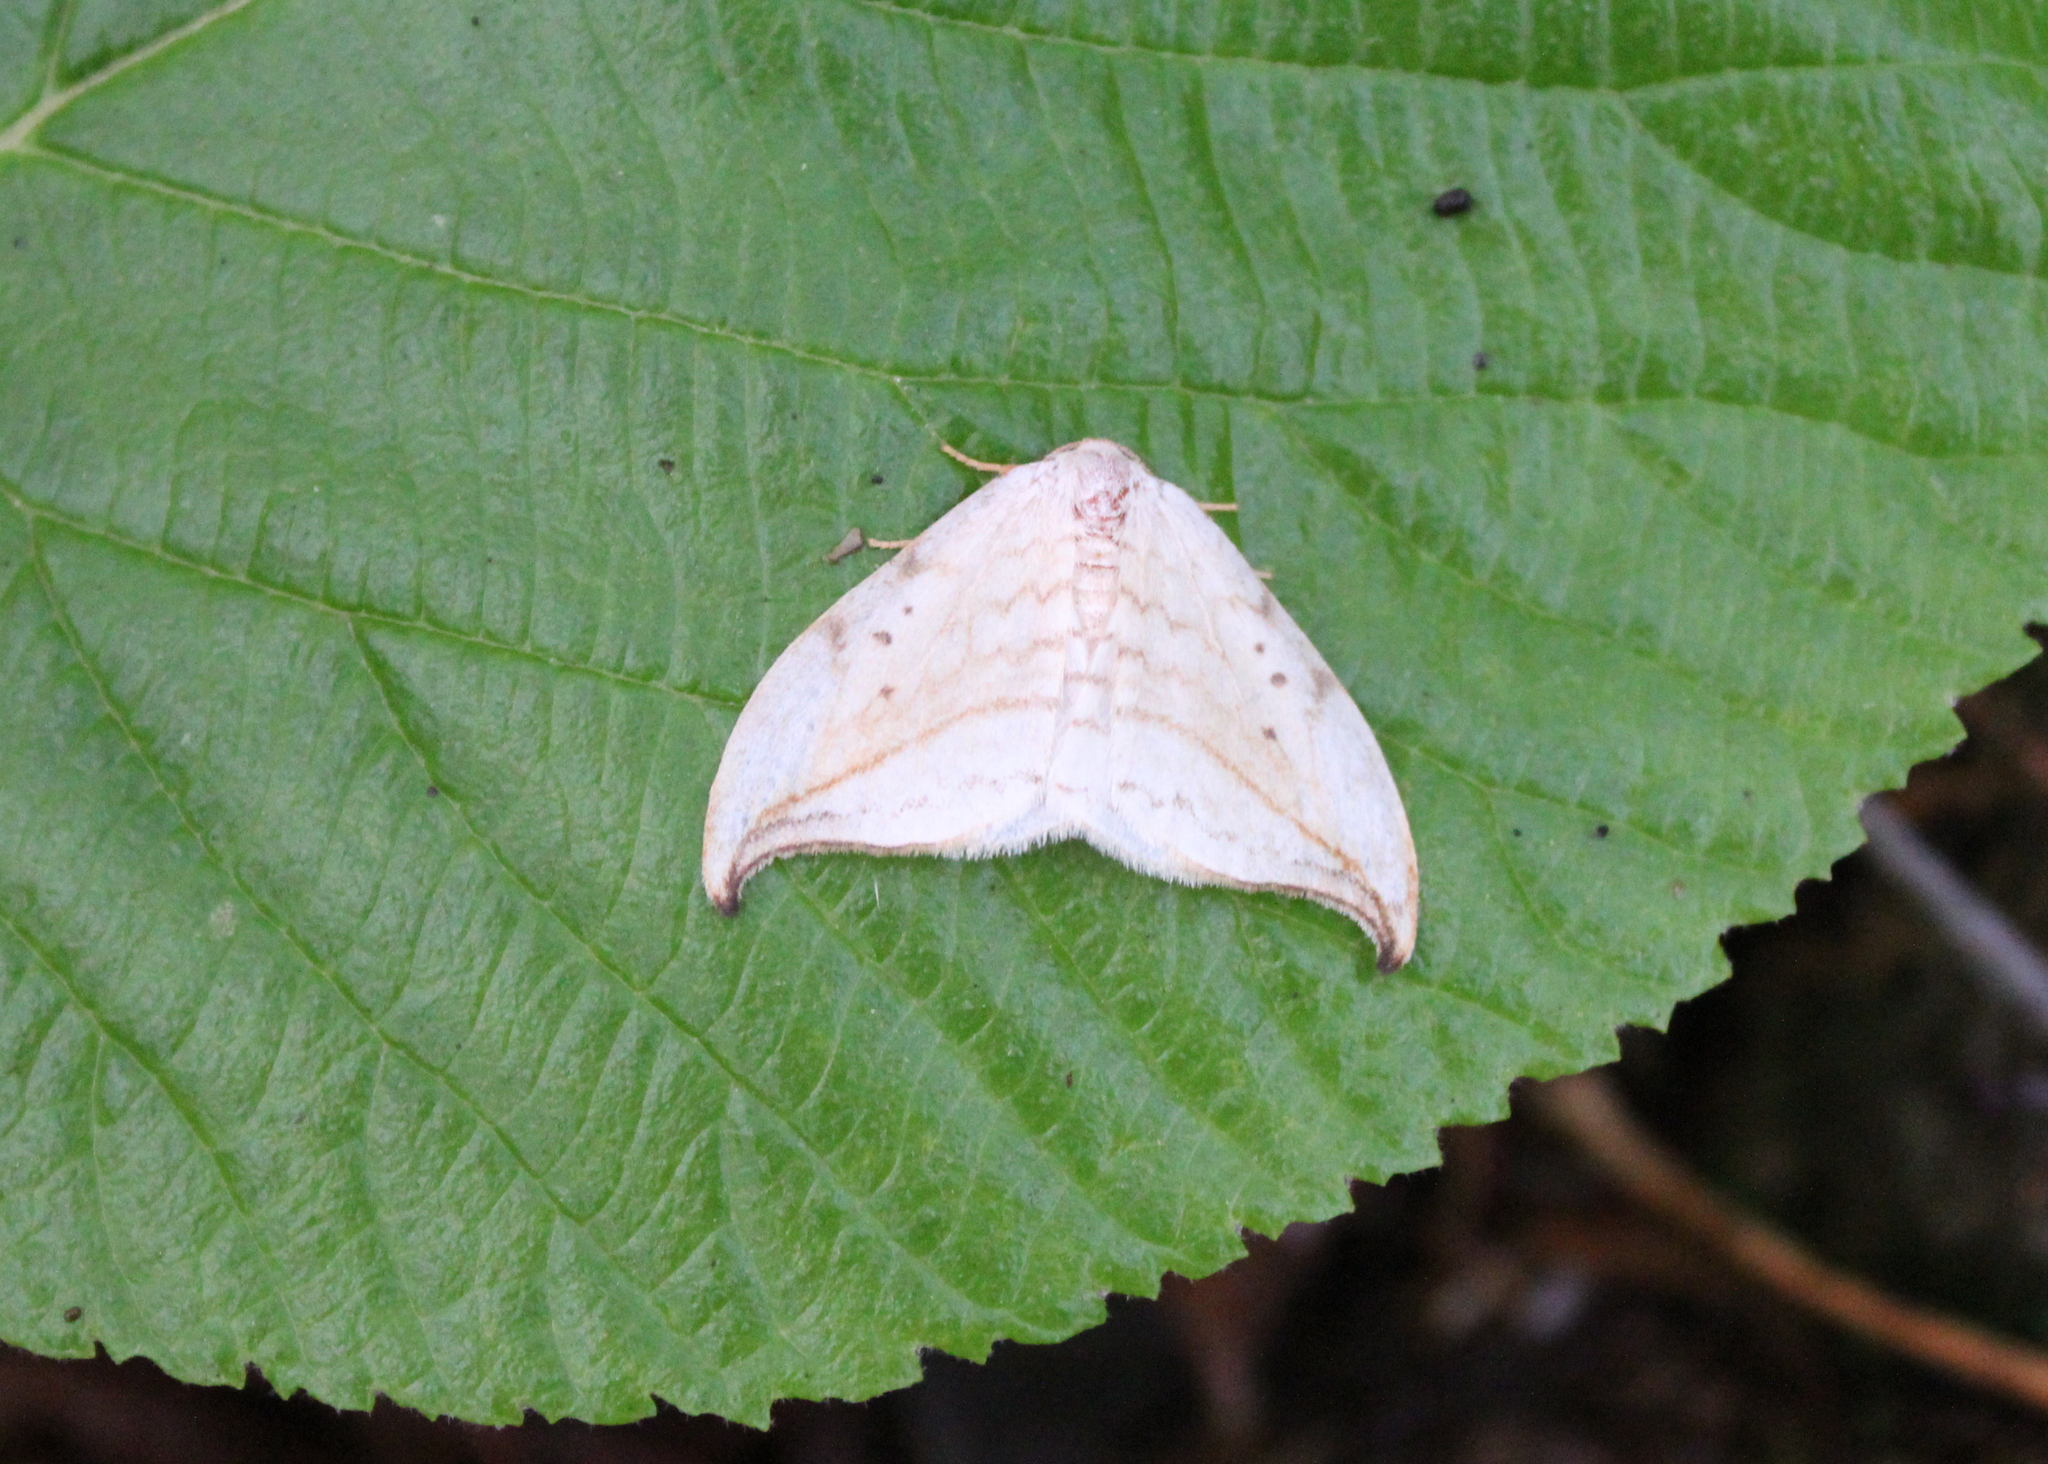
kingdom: Animalia
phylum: Arthropoda
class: Insecta
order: Lepidoptera
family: Drepanidae
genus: Drepana
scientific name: Drepana arcuata
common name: Arched hooktip moth
